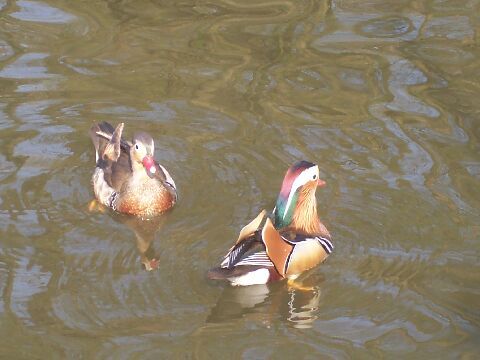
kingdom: Animalia
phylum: Chordata
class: Aves
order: Anseriformes
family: Anatidae
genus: Aix
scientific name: Aix galericulata
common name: Mandarin duck
